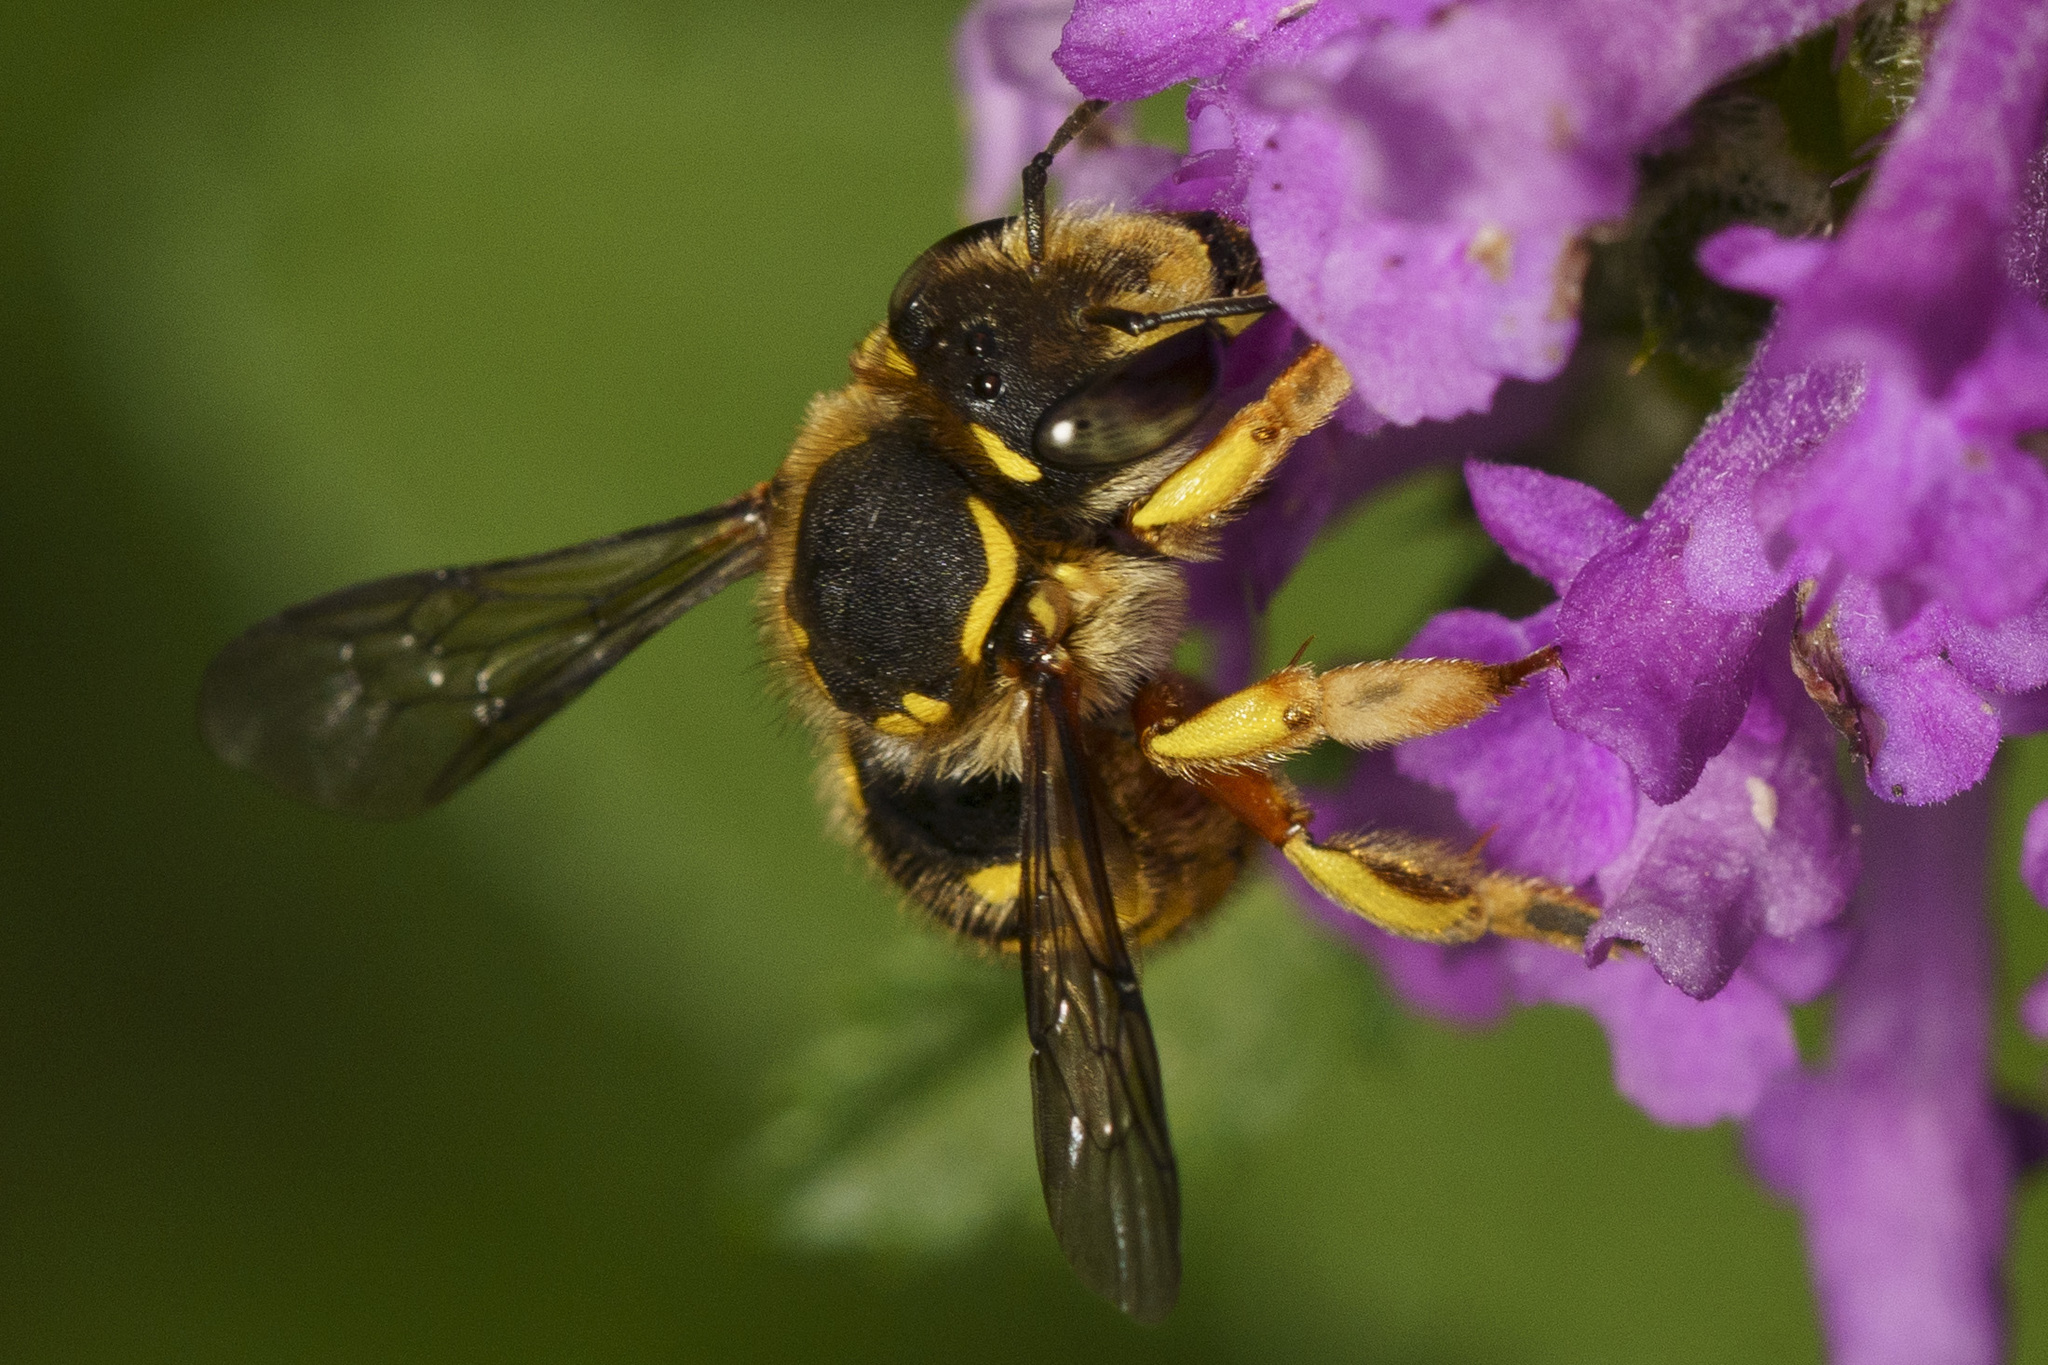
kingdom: Animalia
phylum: Arthropoda
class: Insecta
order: Hymenoptera
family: Megachilidae
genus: Anthidium
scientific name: Anthidium manicatum
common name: Wool carder bee
